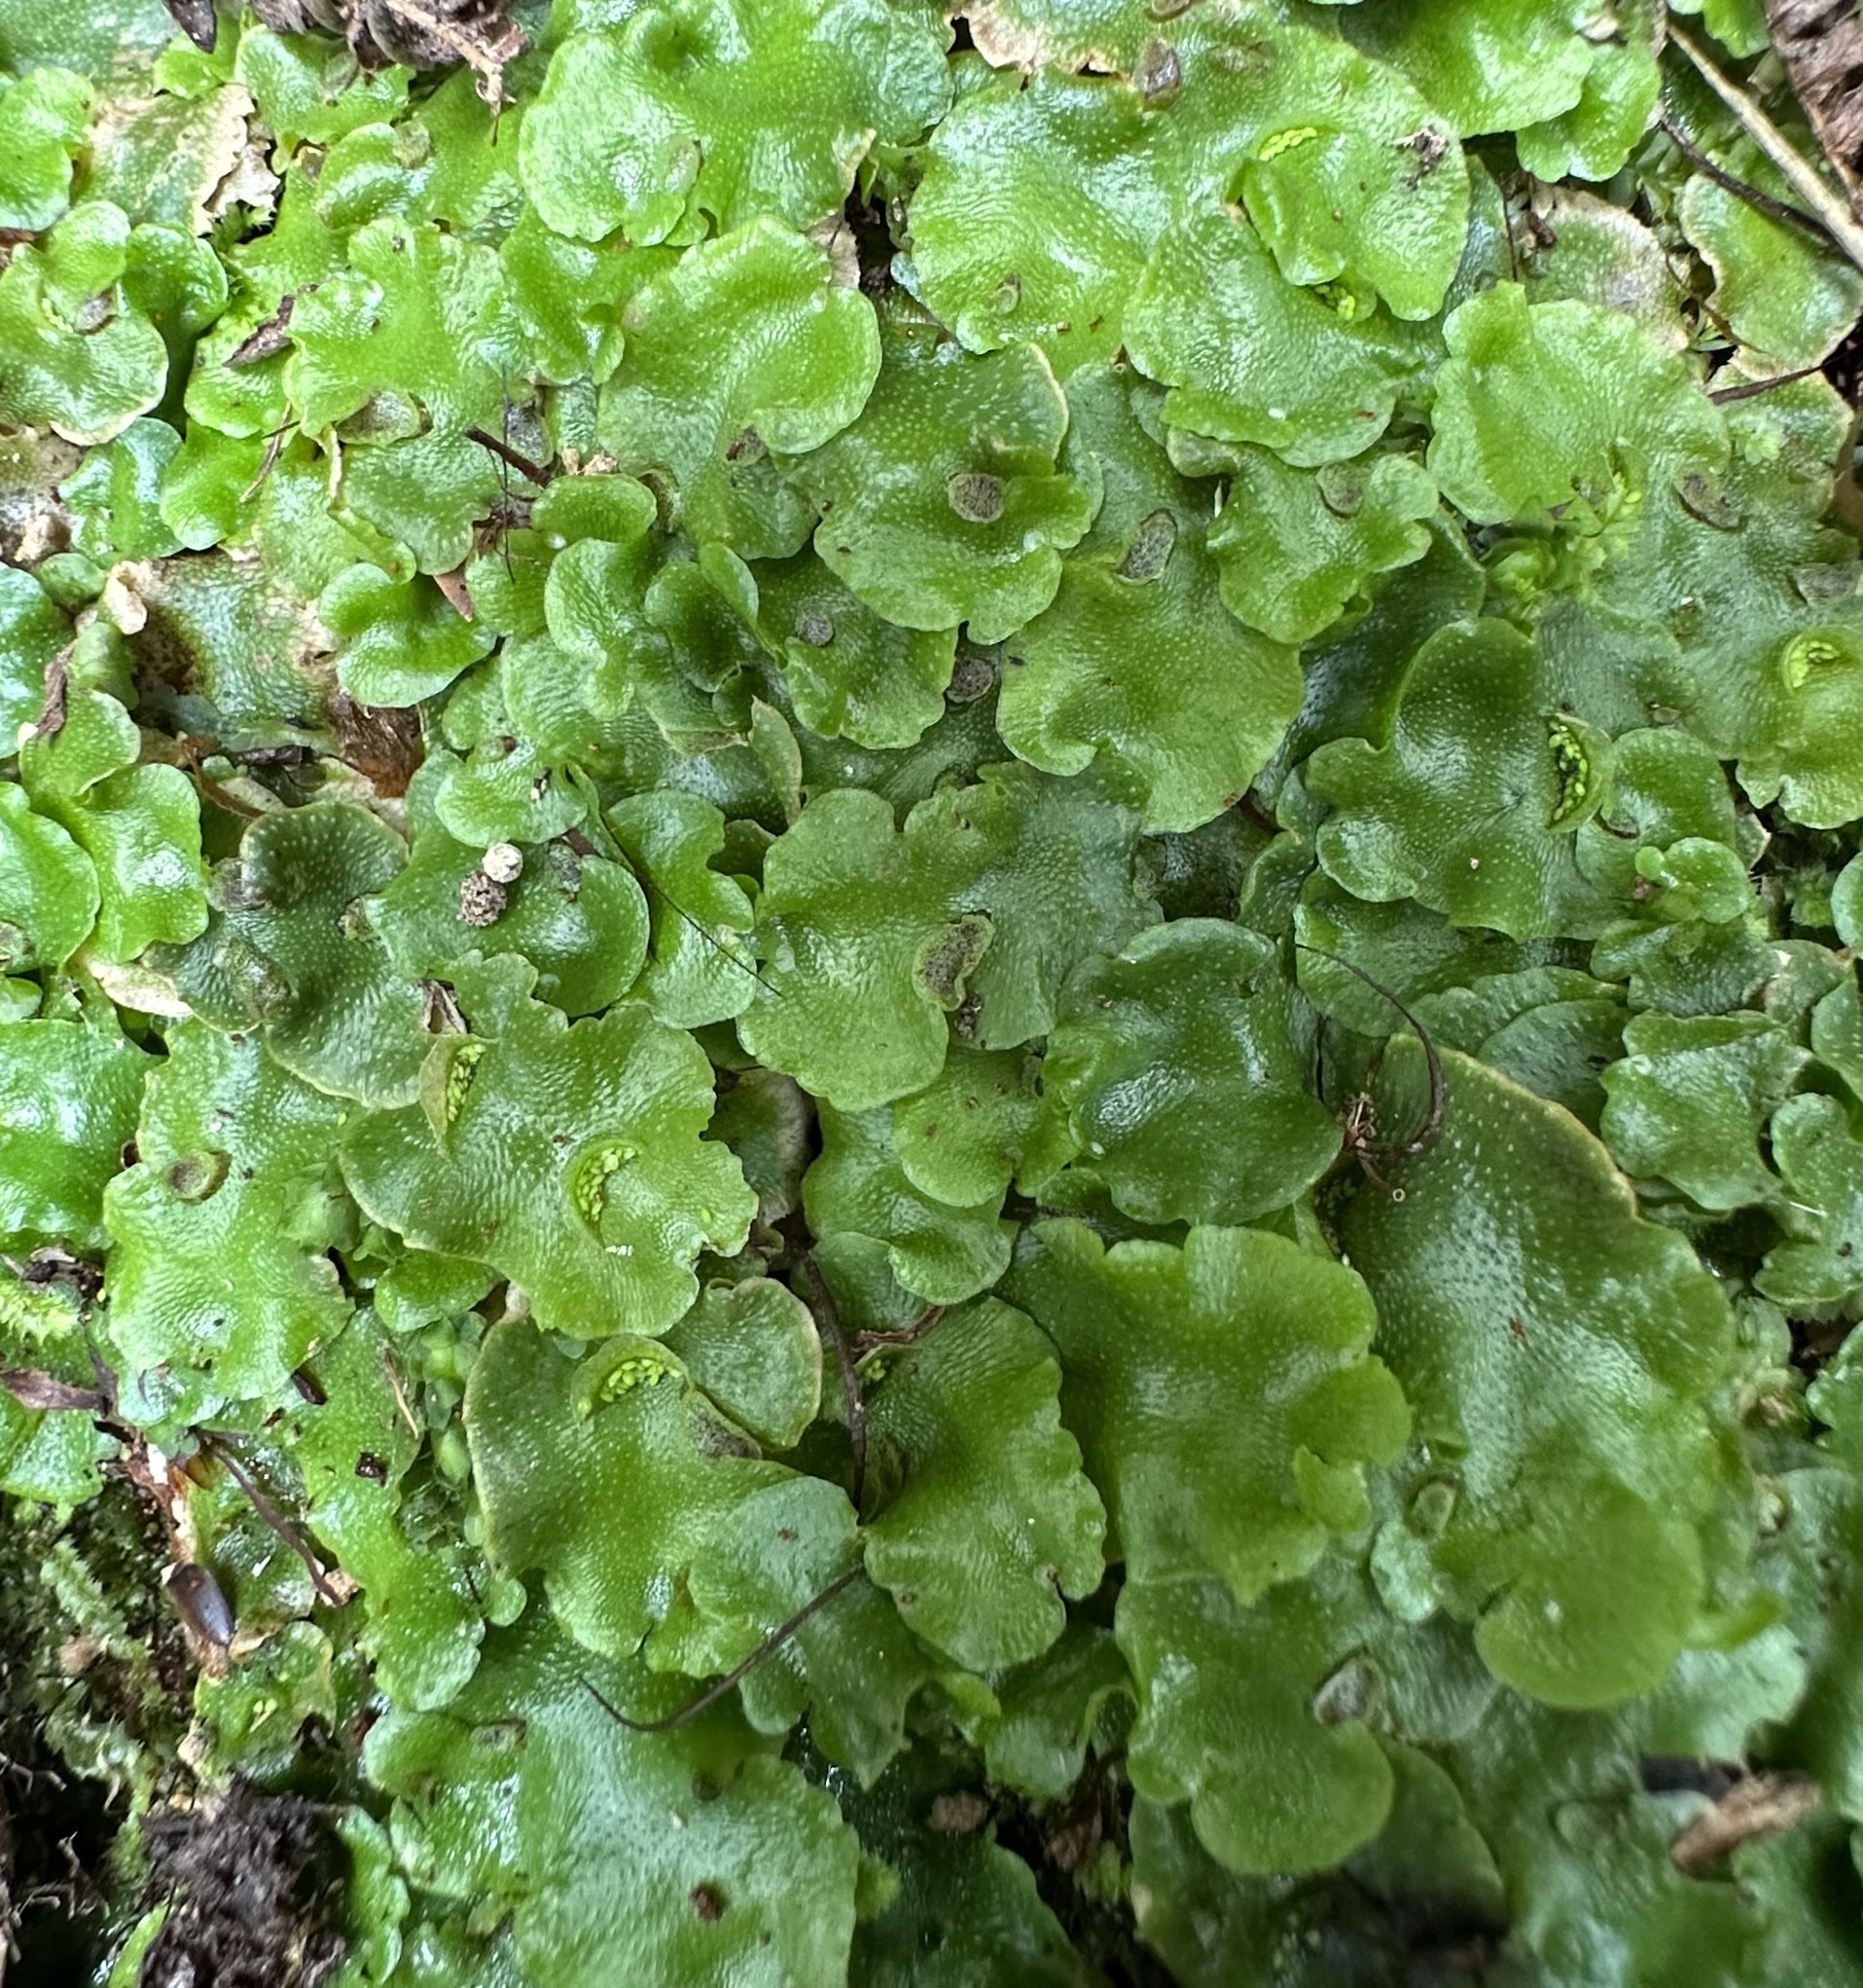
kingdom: Plantae
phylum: Marchantiophyta
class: Marchantiopsida
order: Lunulariales
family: Lunulariaceae
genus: Lunularia
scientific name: Lunularia cruciata
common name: Crescent-cup liverwort
